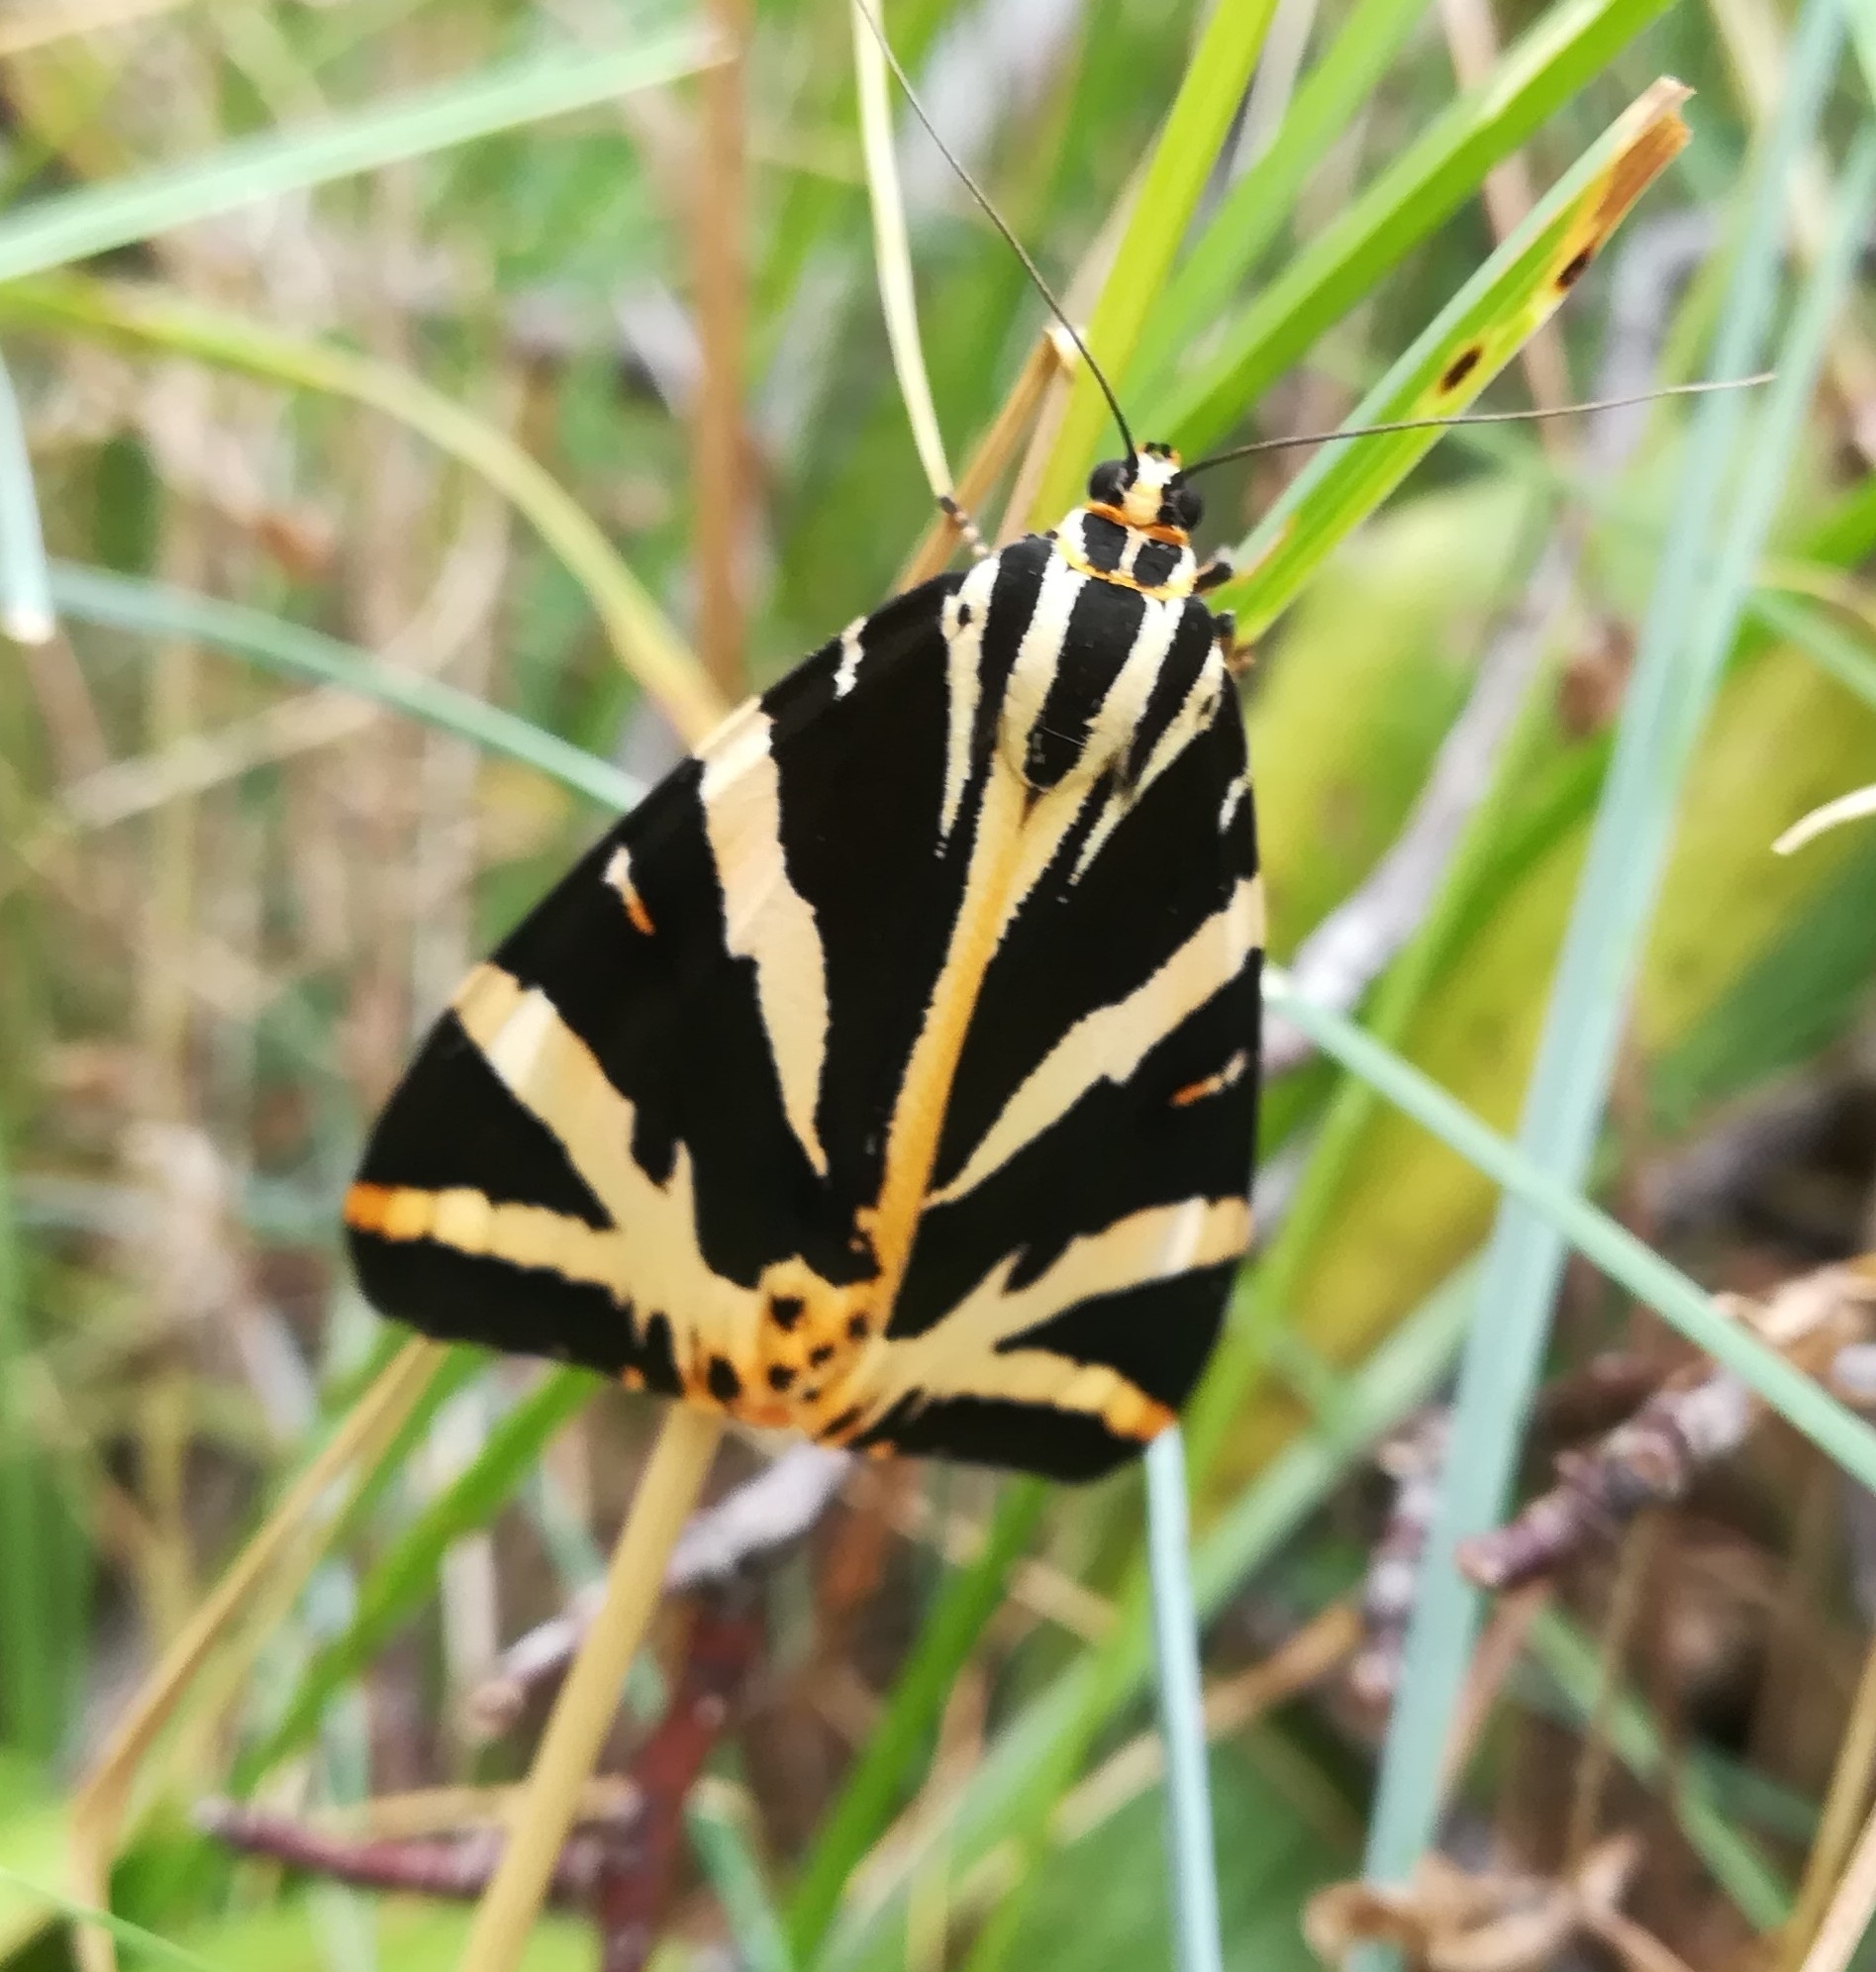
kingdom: Animalia
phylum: Arthropoda
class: Insecta
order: Lepidoptera
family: Erebidae
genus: Euplagia
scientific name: Euplagia quadripunctaria
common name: Jersey tiger
